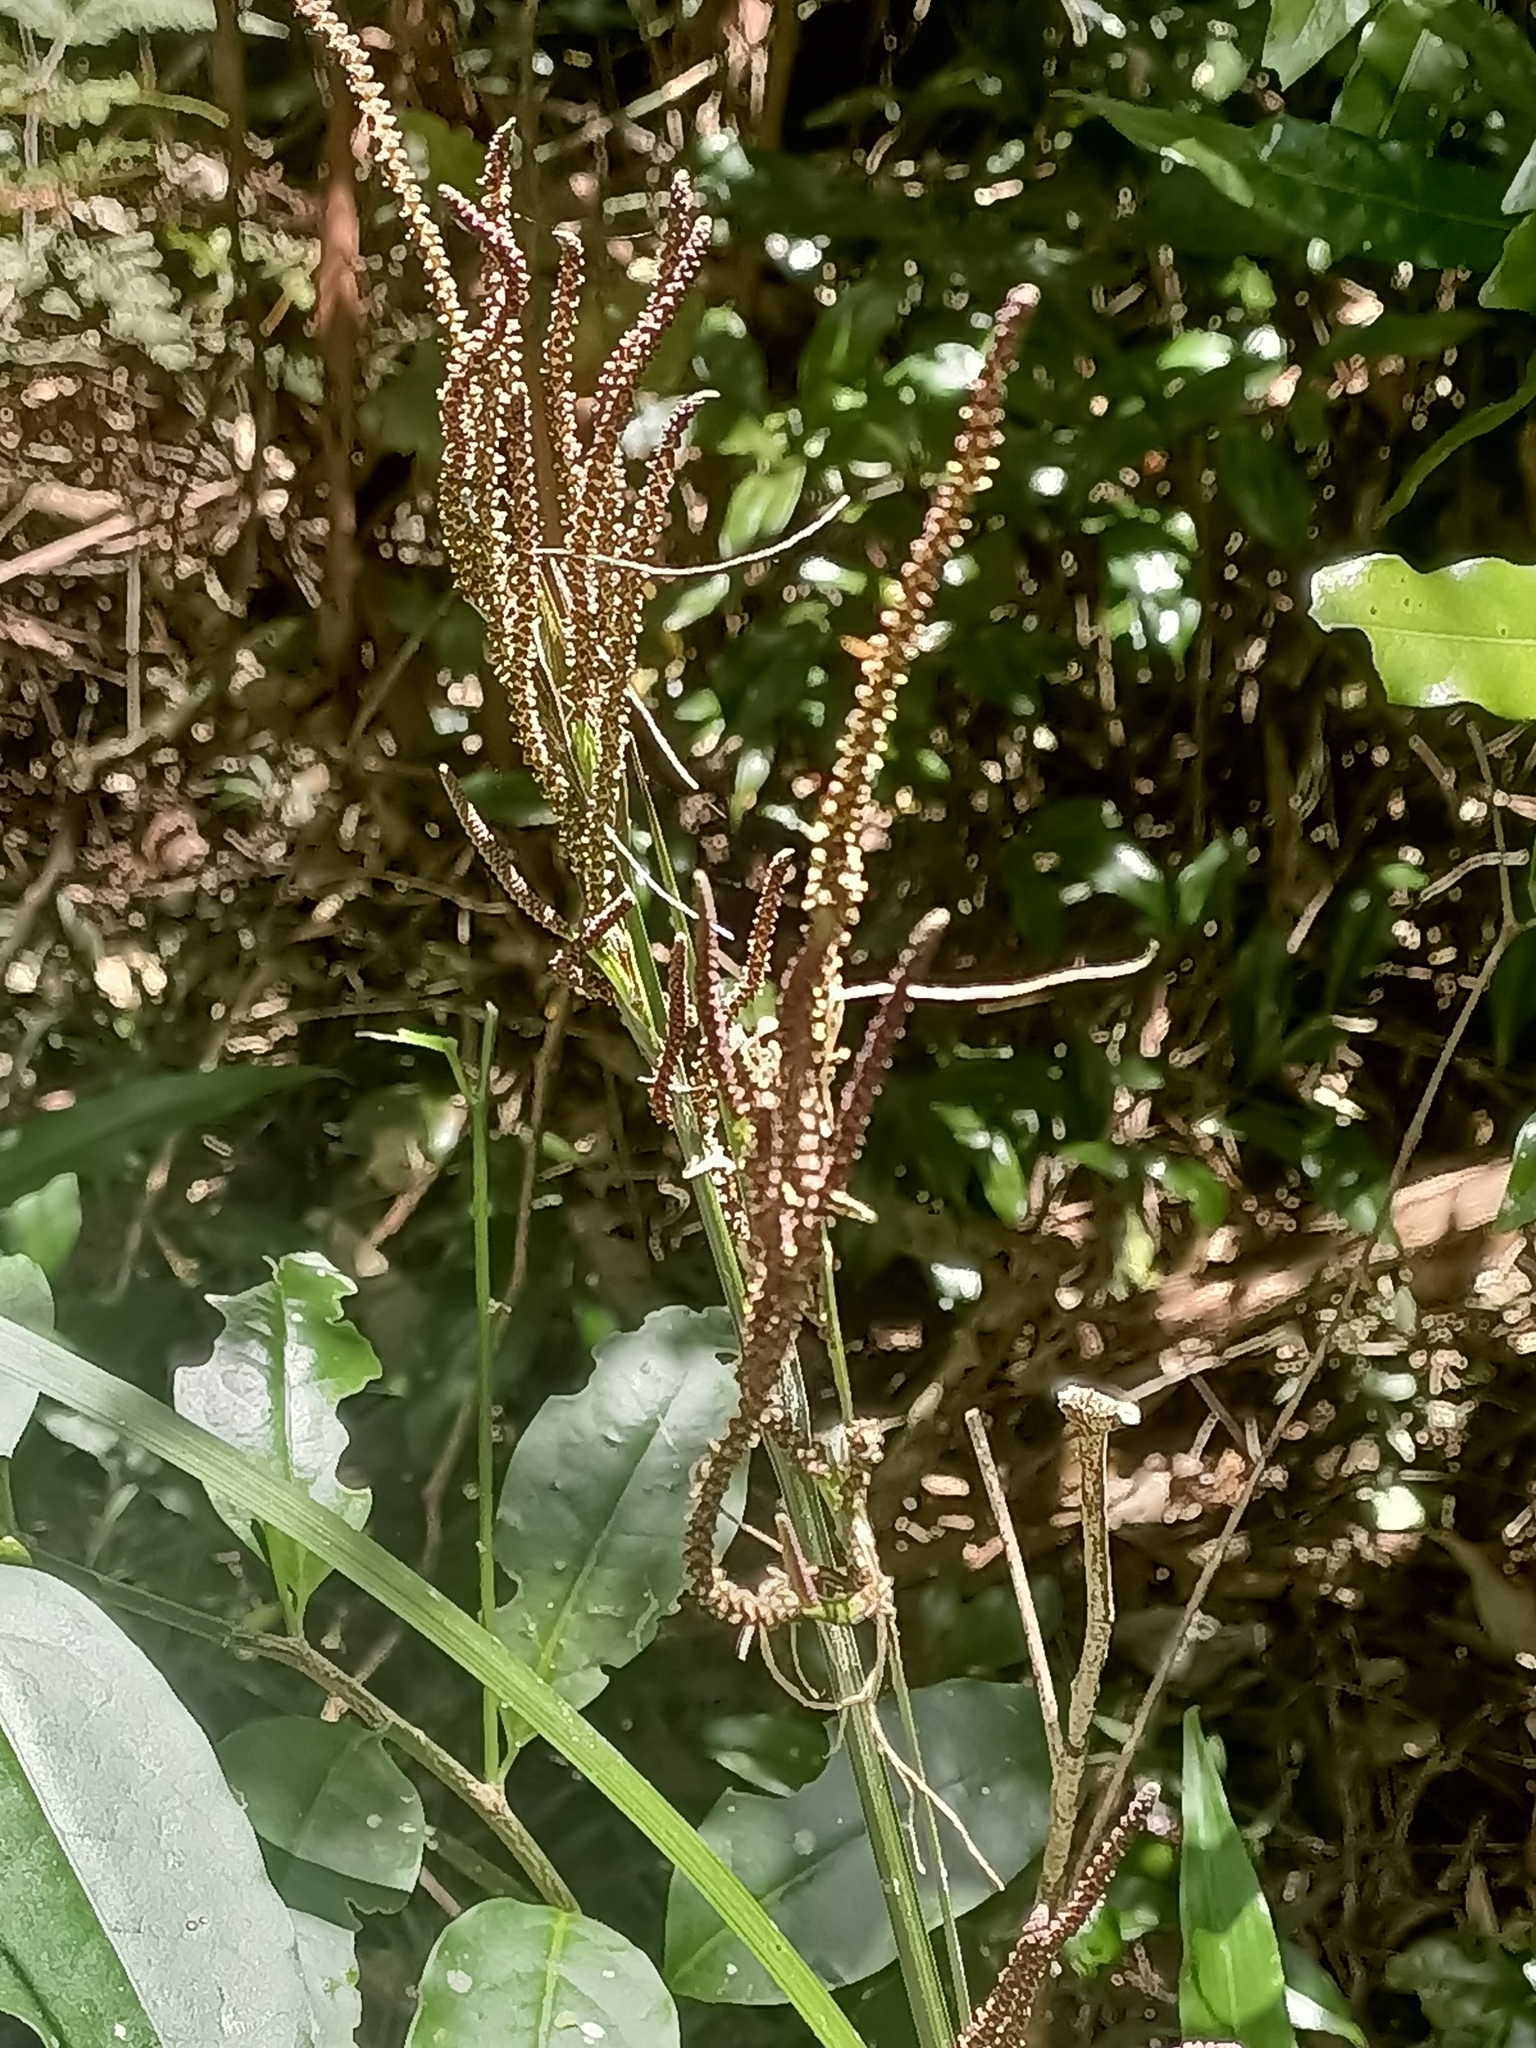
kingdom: Plantae
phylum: Tracheophyta
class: Liliopsida
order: Alismatales
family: Araceae
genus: Gymnostachys
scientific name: Gymnostachys anceps
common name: Settler's-flax
